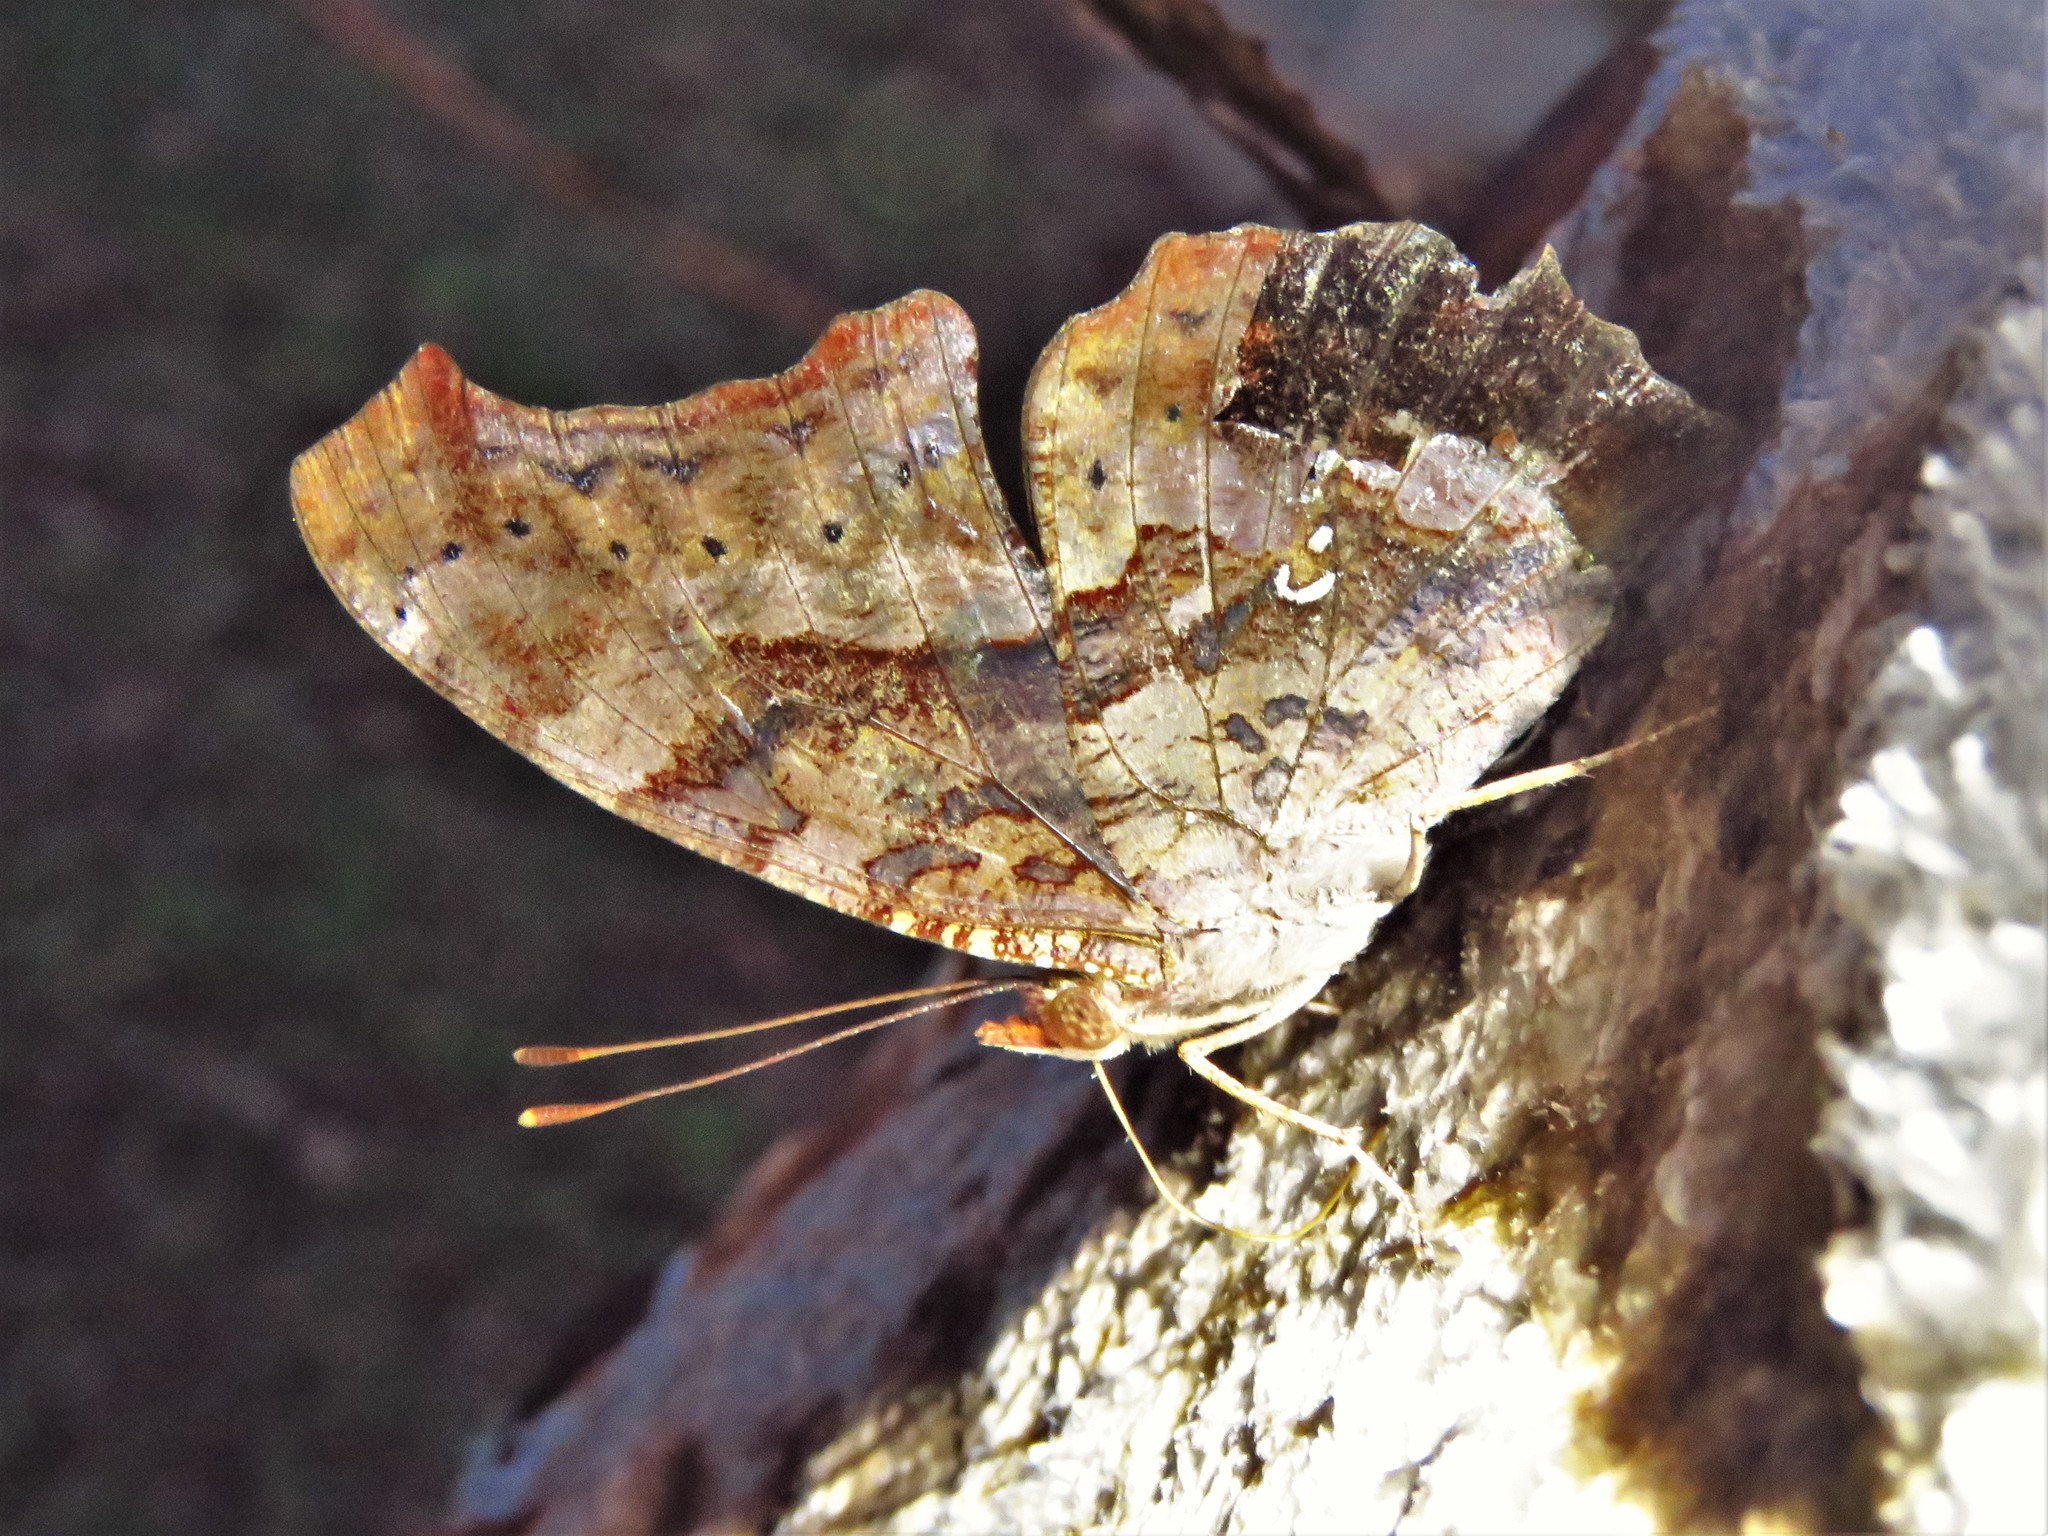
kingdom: Animalia
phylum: Arthropoda
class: Insecta
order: Lepidoptera
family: Nymphalidae
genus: Polygonia
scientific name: Polygonia interrogationis
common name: Question mark
